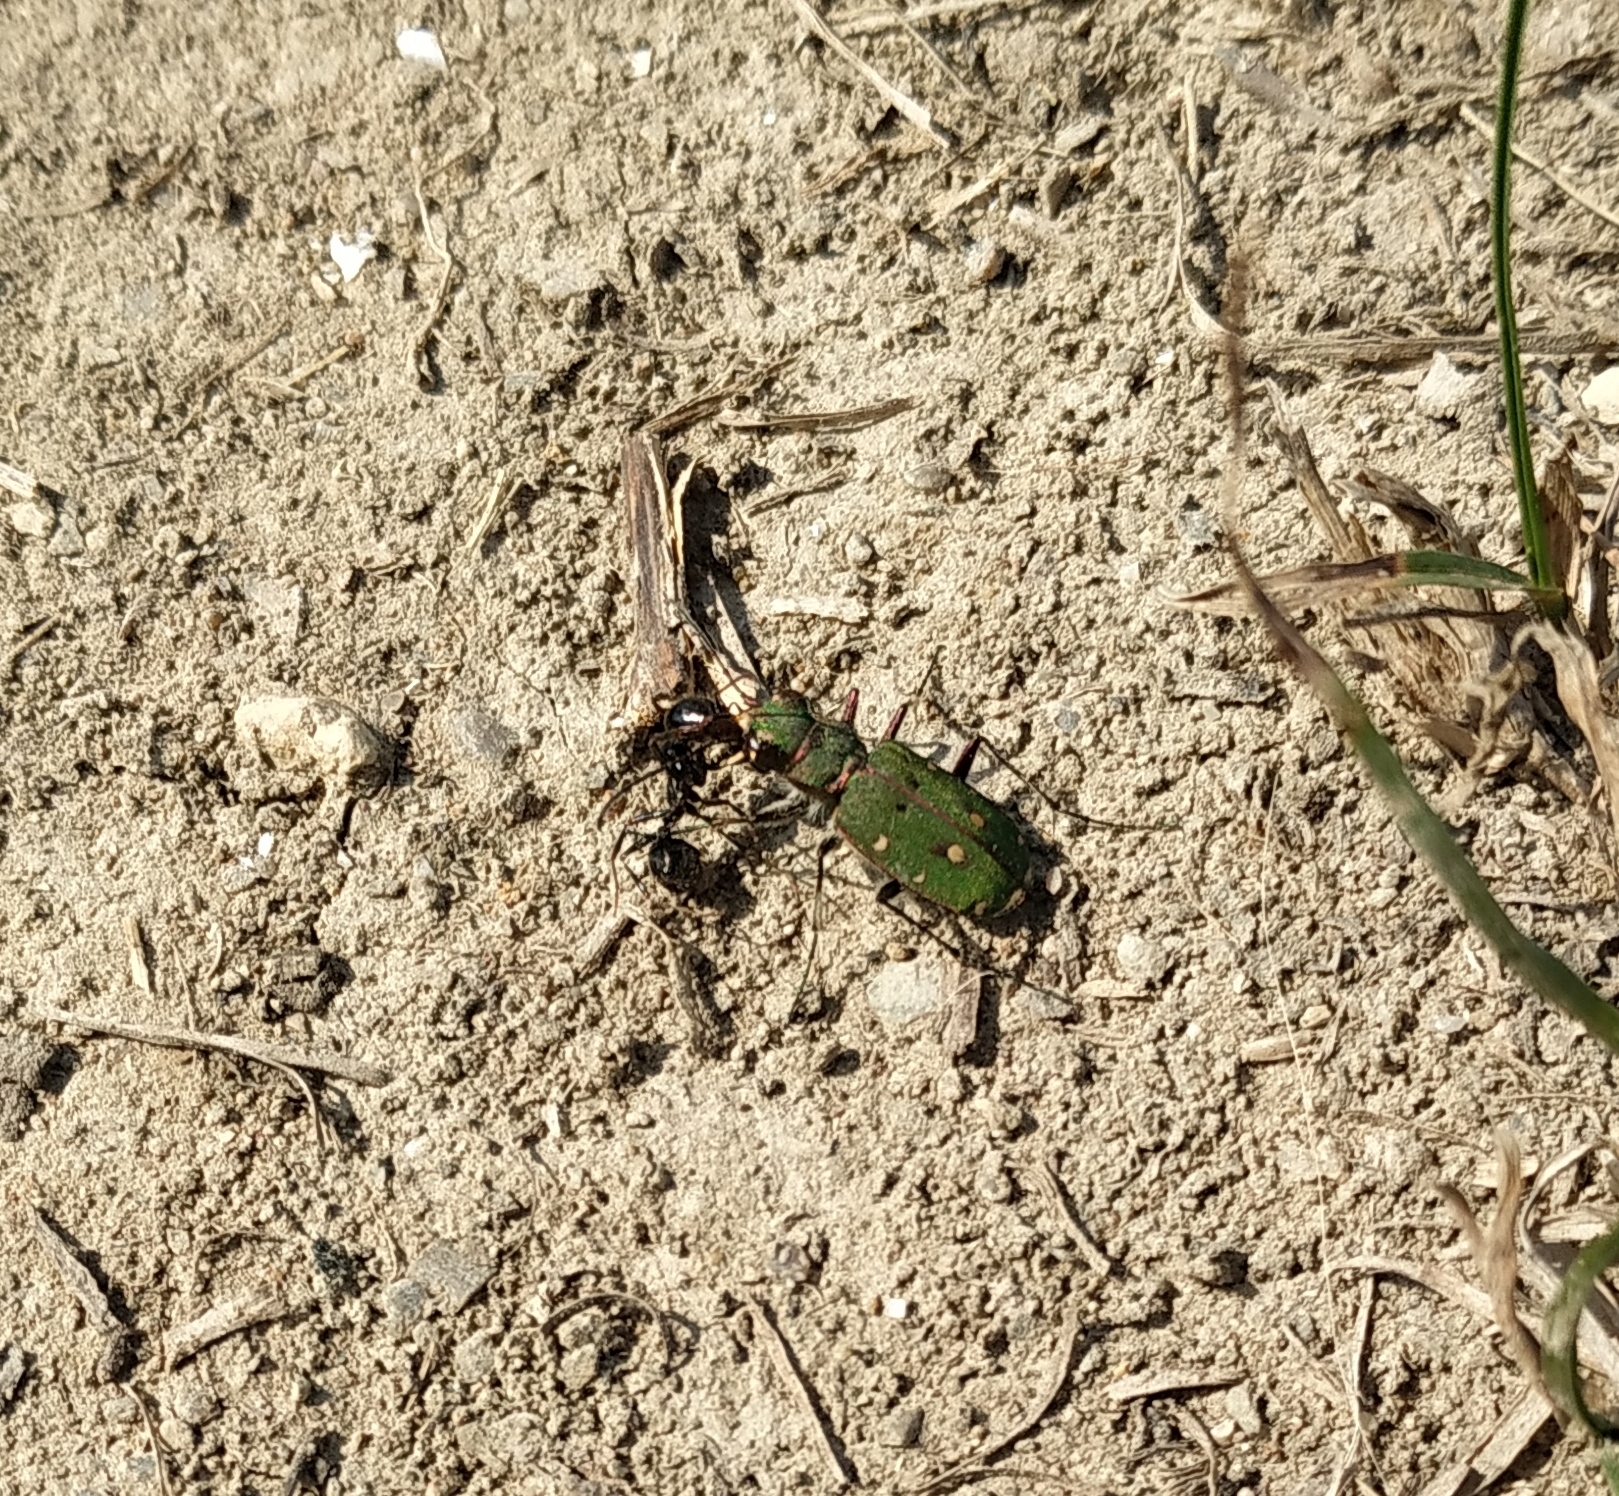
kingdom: Animalia
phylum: Arthropoda
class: Insecta
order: Coleoptera
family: Carabidae
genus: Cicindela
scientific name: Cicindela campestris
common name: Common tiger beetle
